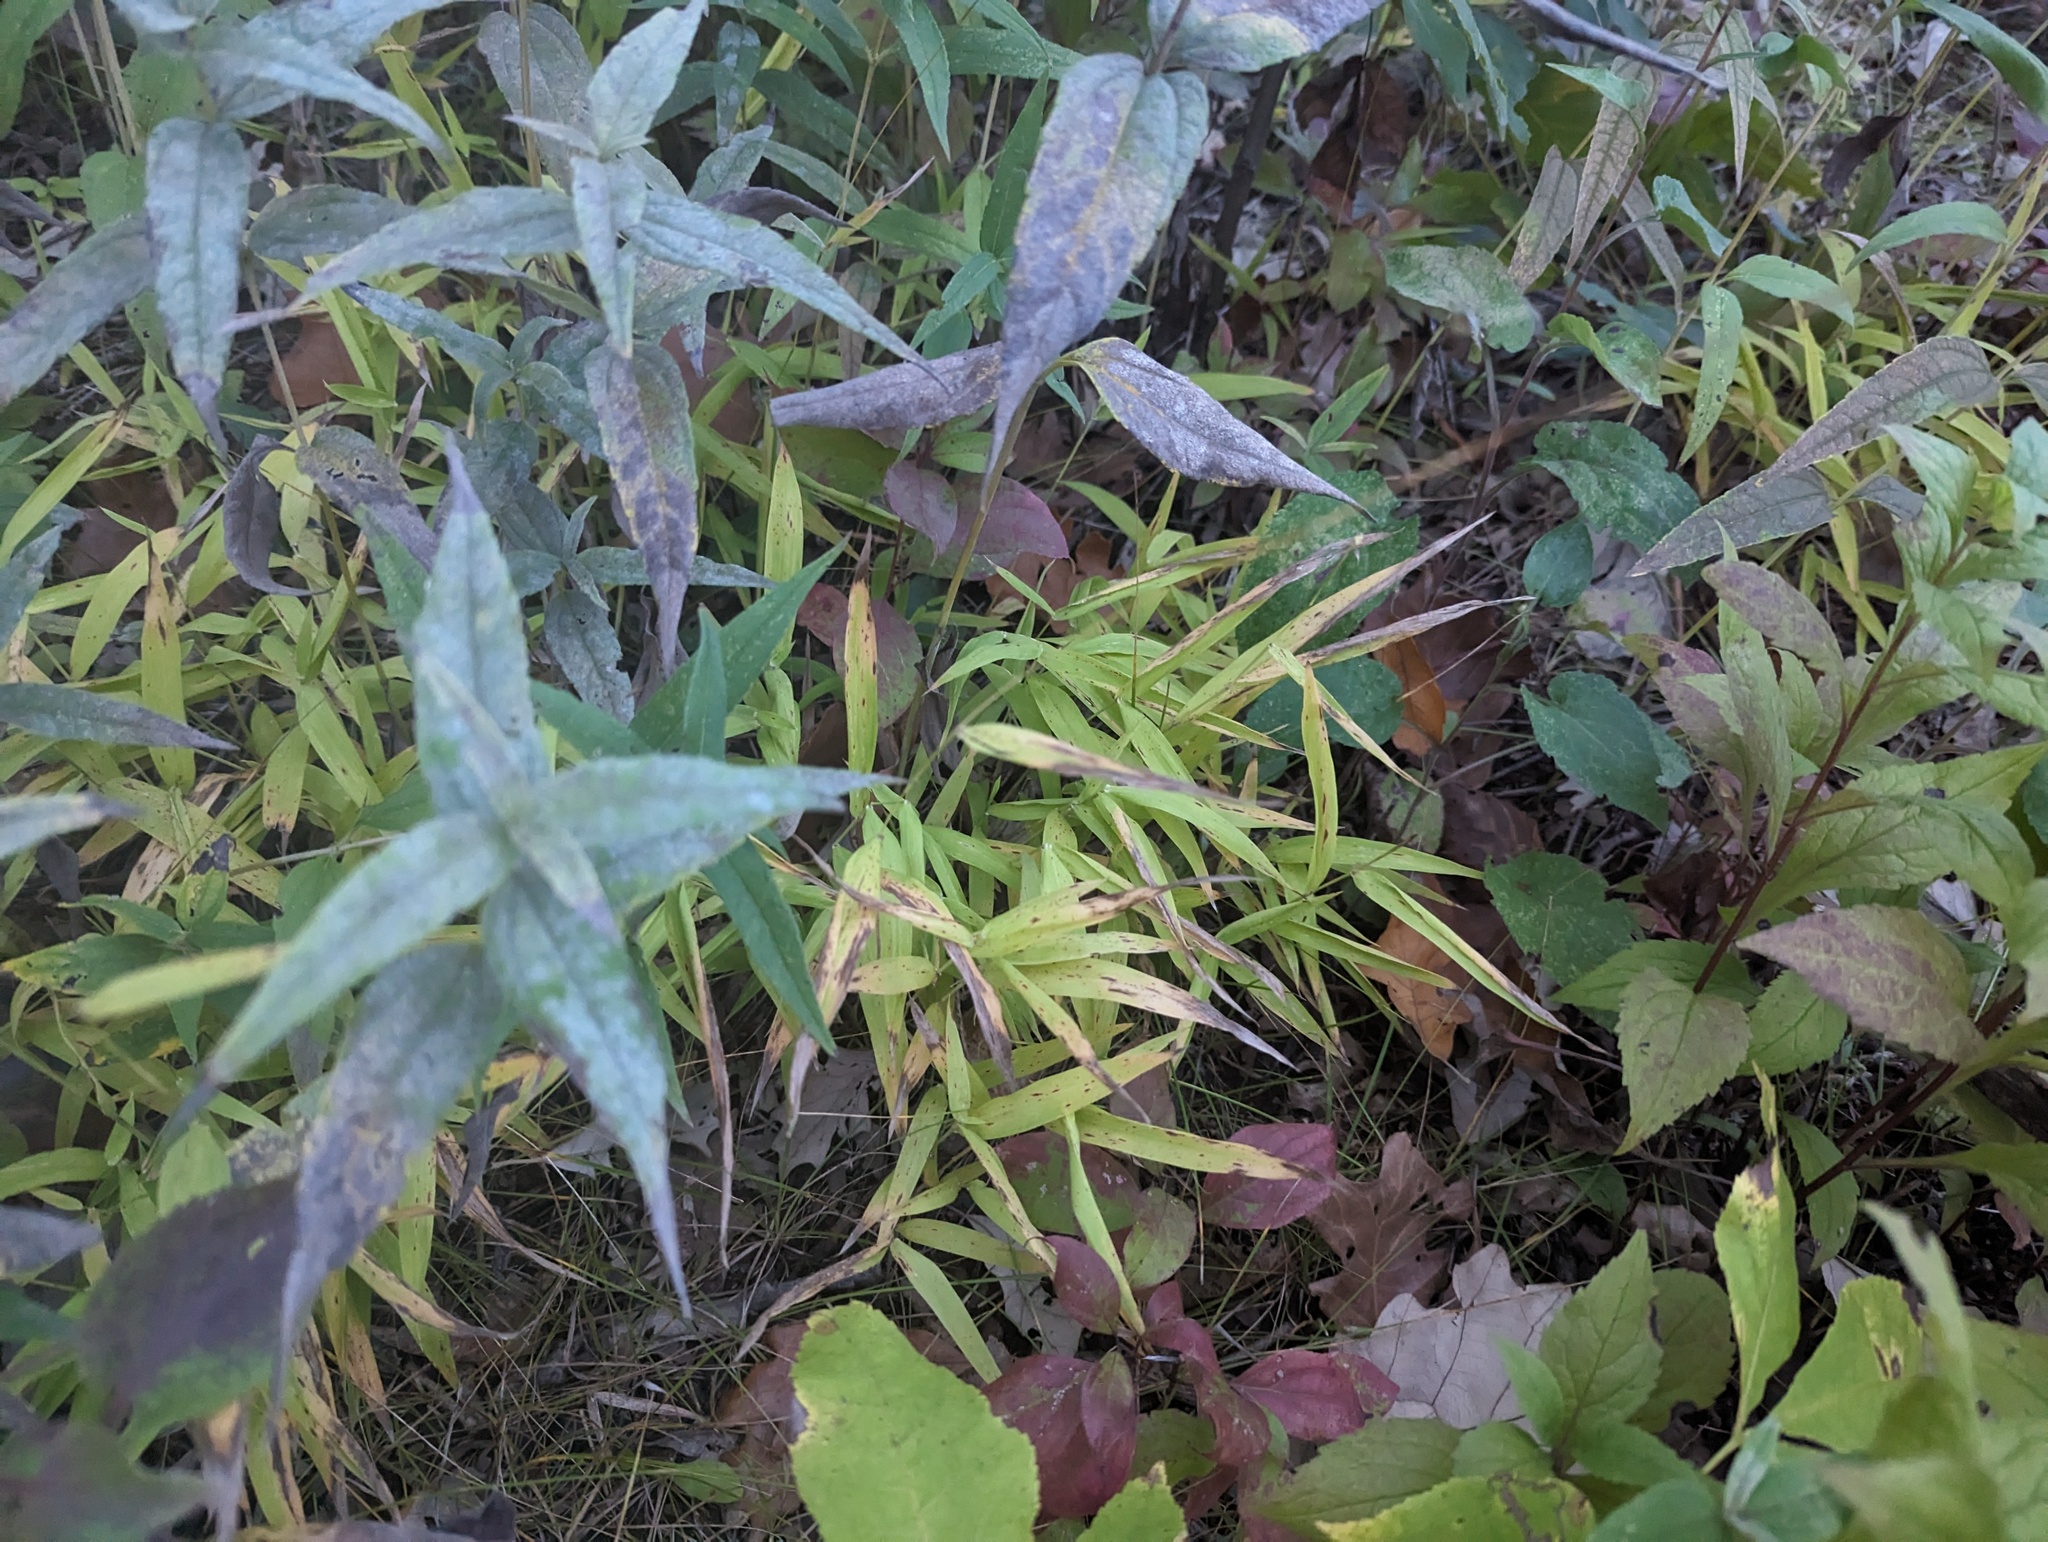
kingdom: Plantae
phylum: Tracheophyta
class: Liliopsida
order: Poales
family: Poaceae
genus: Brachyelytrum
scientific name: Brachyelytrum erectum
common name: Bearded shorthusk
